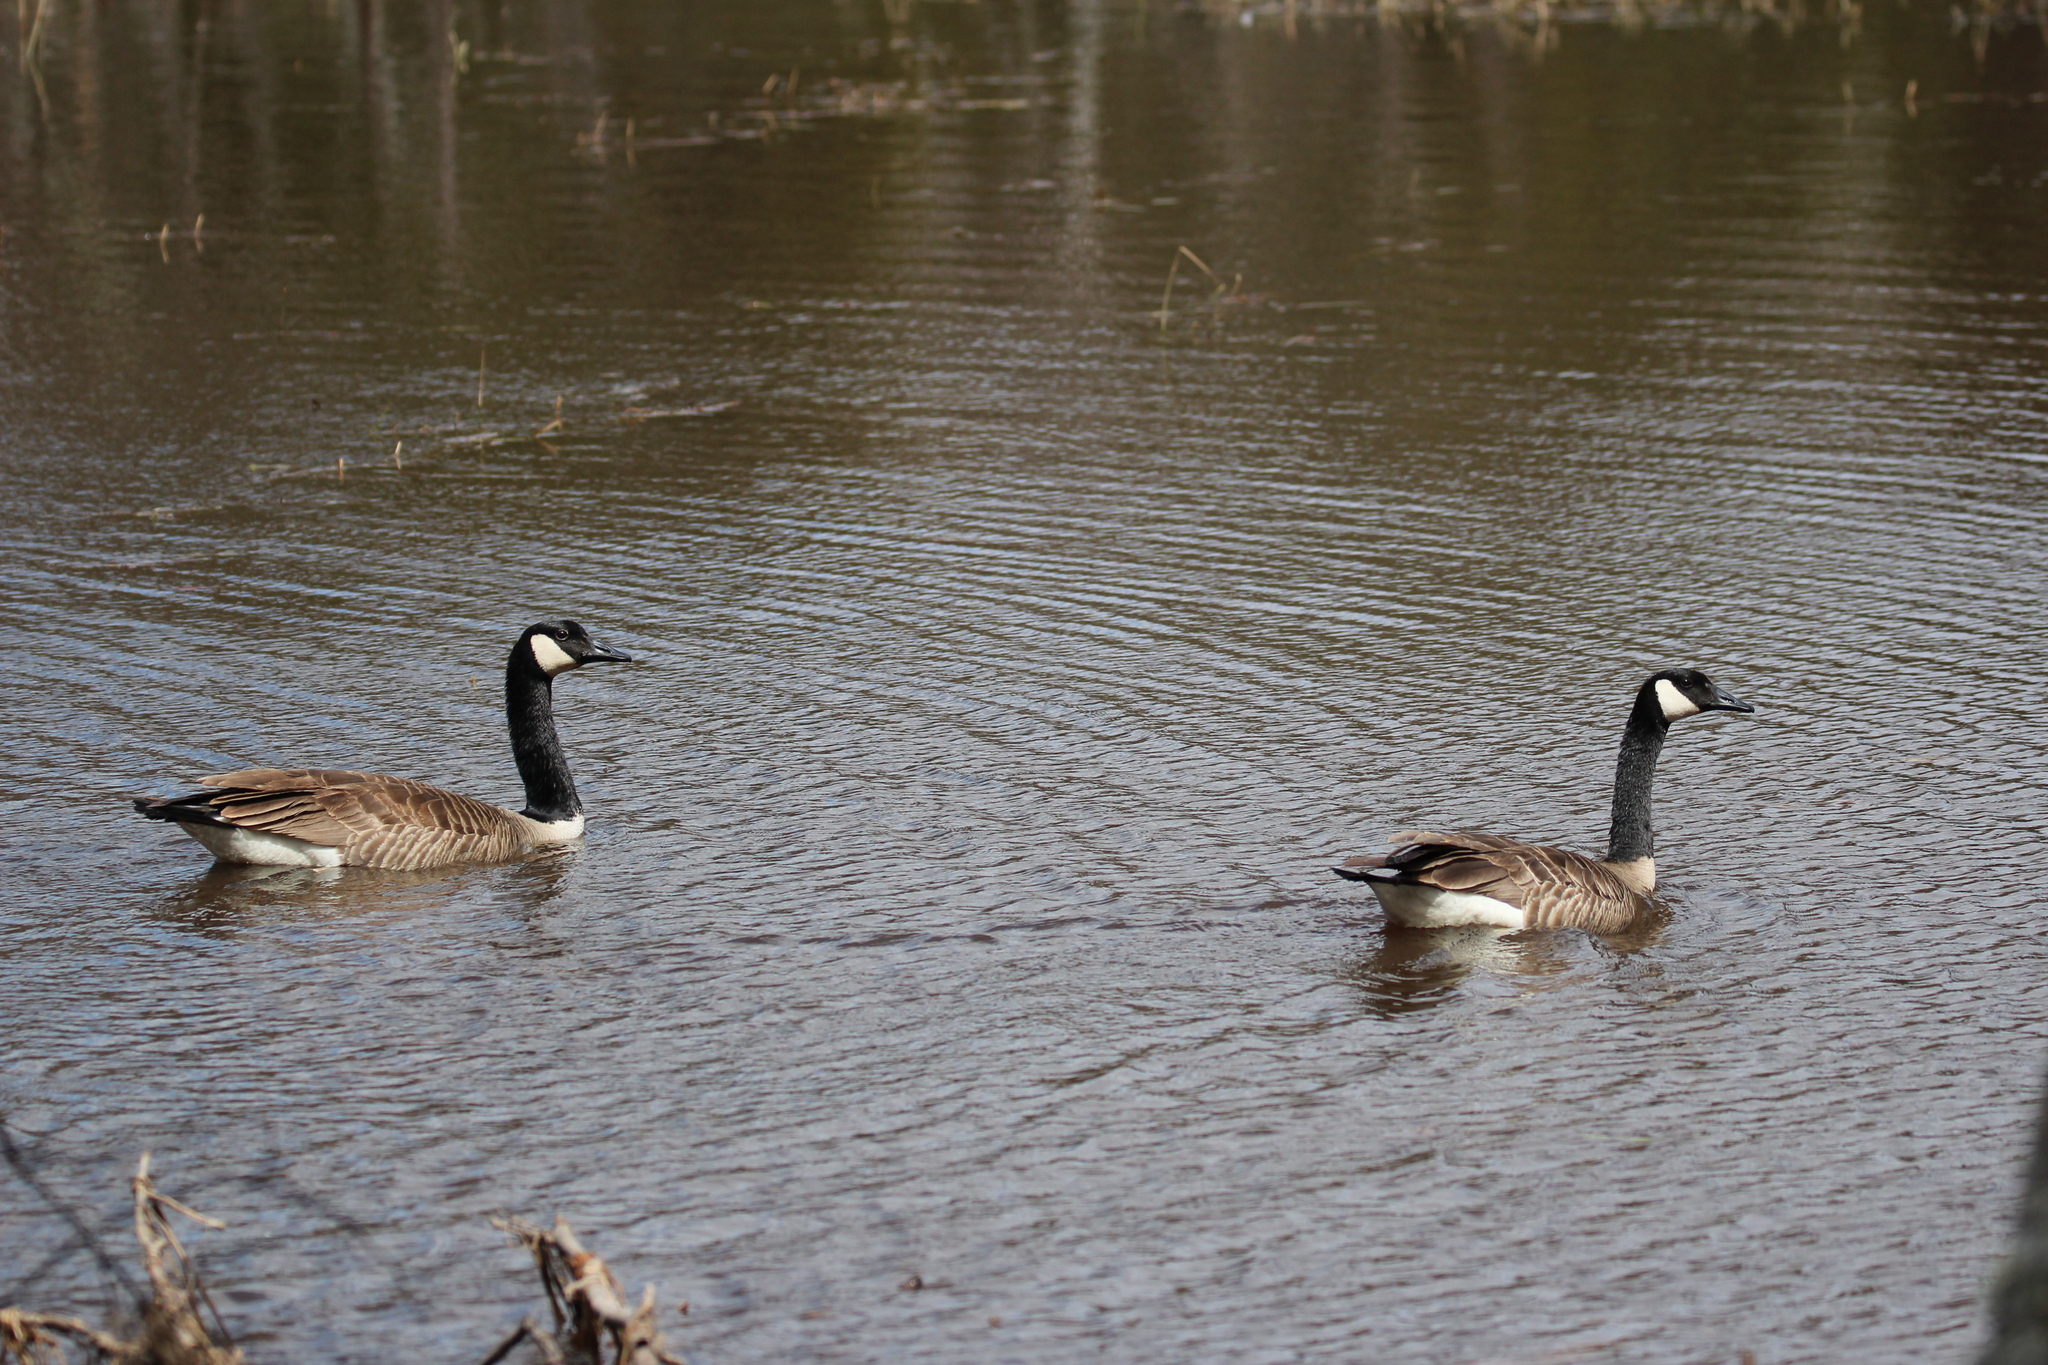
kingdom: Animalia
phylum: Chordata
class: Aves
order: Anseriformes
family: Anatidae
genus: Branta
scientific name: Branta canadensis
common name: Canada goose
